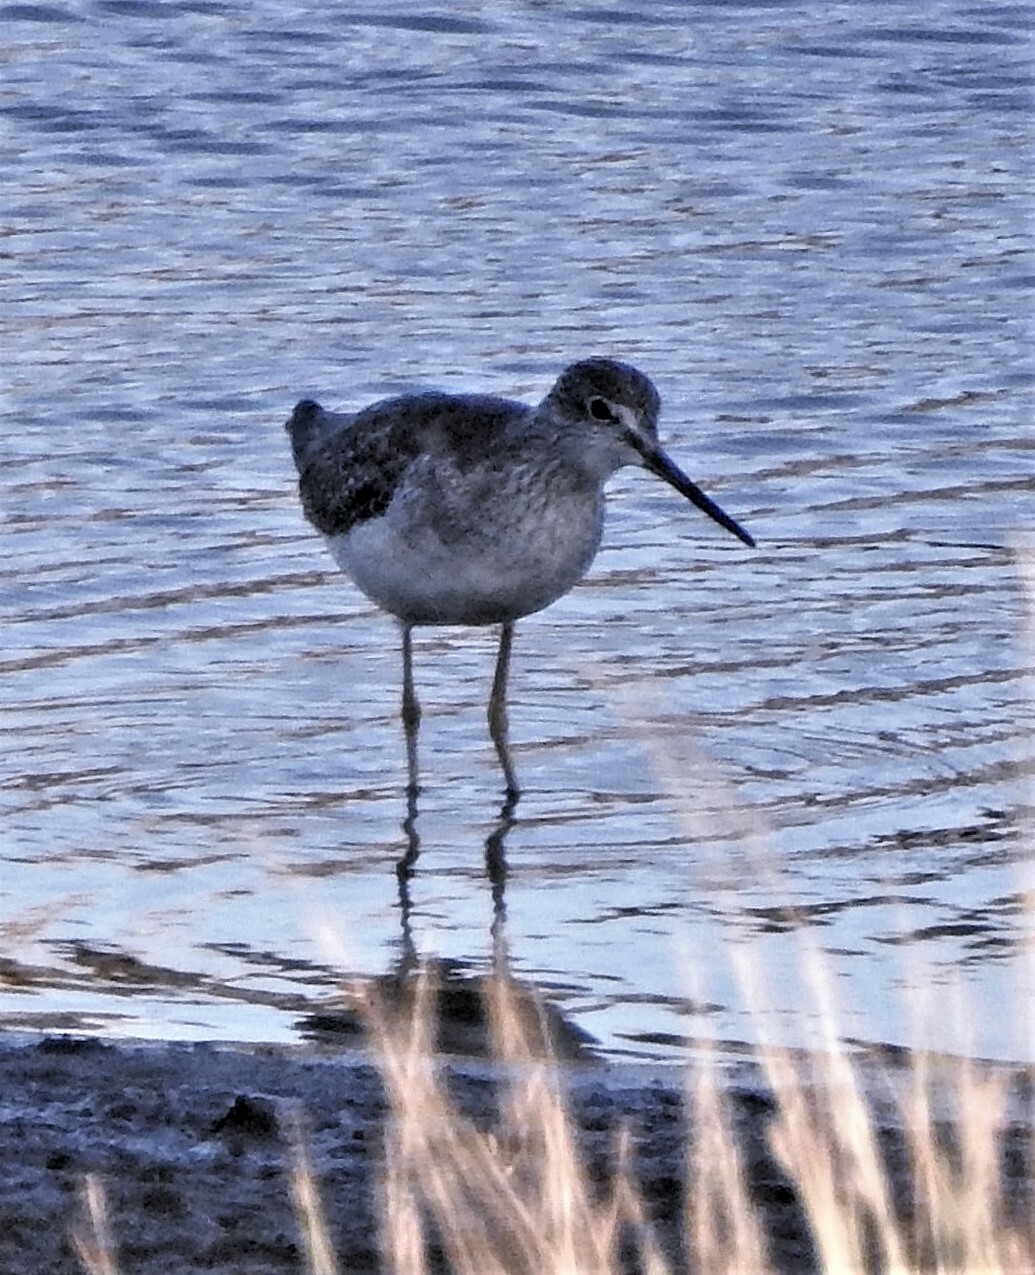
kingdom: Animalia
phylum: Chordata
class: Aves
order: Charadriiformes
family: Scolopacidae
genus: Tringa
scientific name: Tringa melanoleuca
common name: Greater yellowlegs
